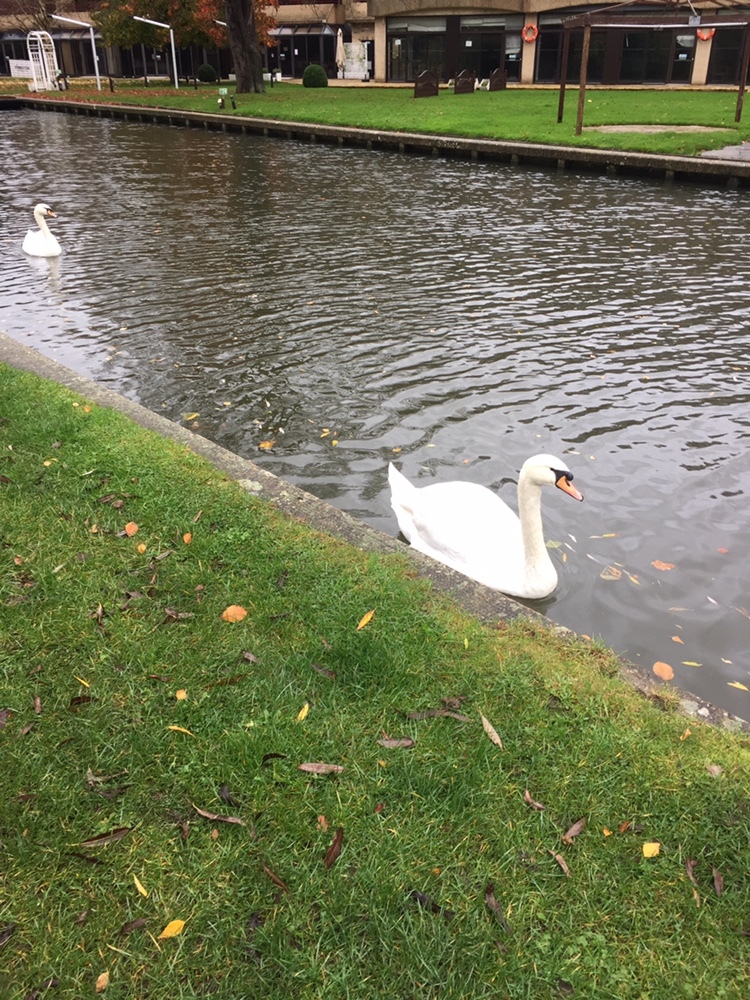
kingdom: Animalia
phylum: Chordata
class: Aves
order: Anseriformes
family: Anatidae
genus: Cygnus
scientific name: Cygnus olor
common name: Mute swan
